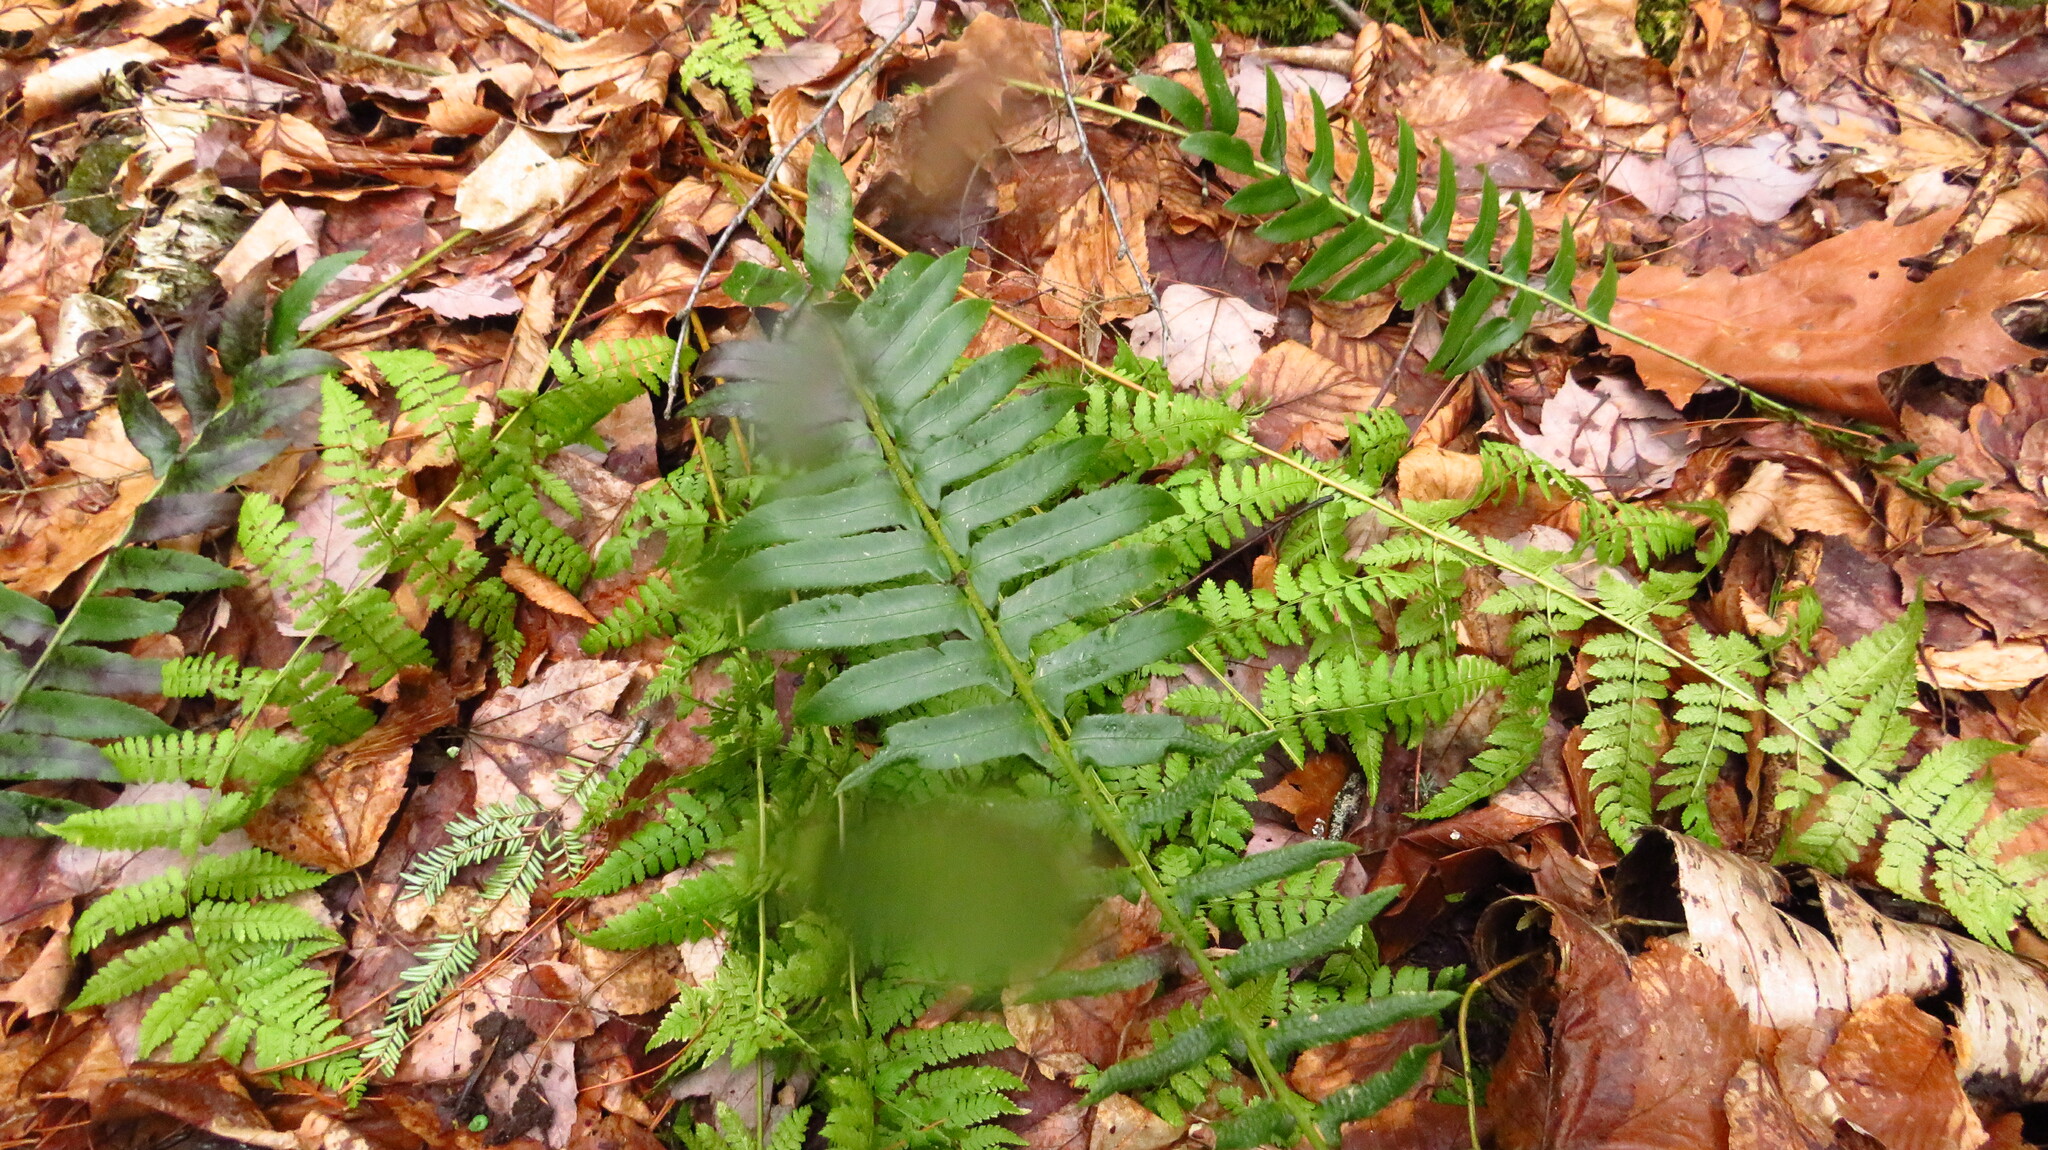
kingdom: Plantae
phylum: Tracheophyta
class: Polypodiopsida
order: Polypodiales
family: Dryopteridaceae
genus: Polystichum
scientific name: Polystichum acrostichoides
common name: Christmas fern
